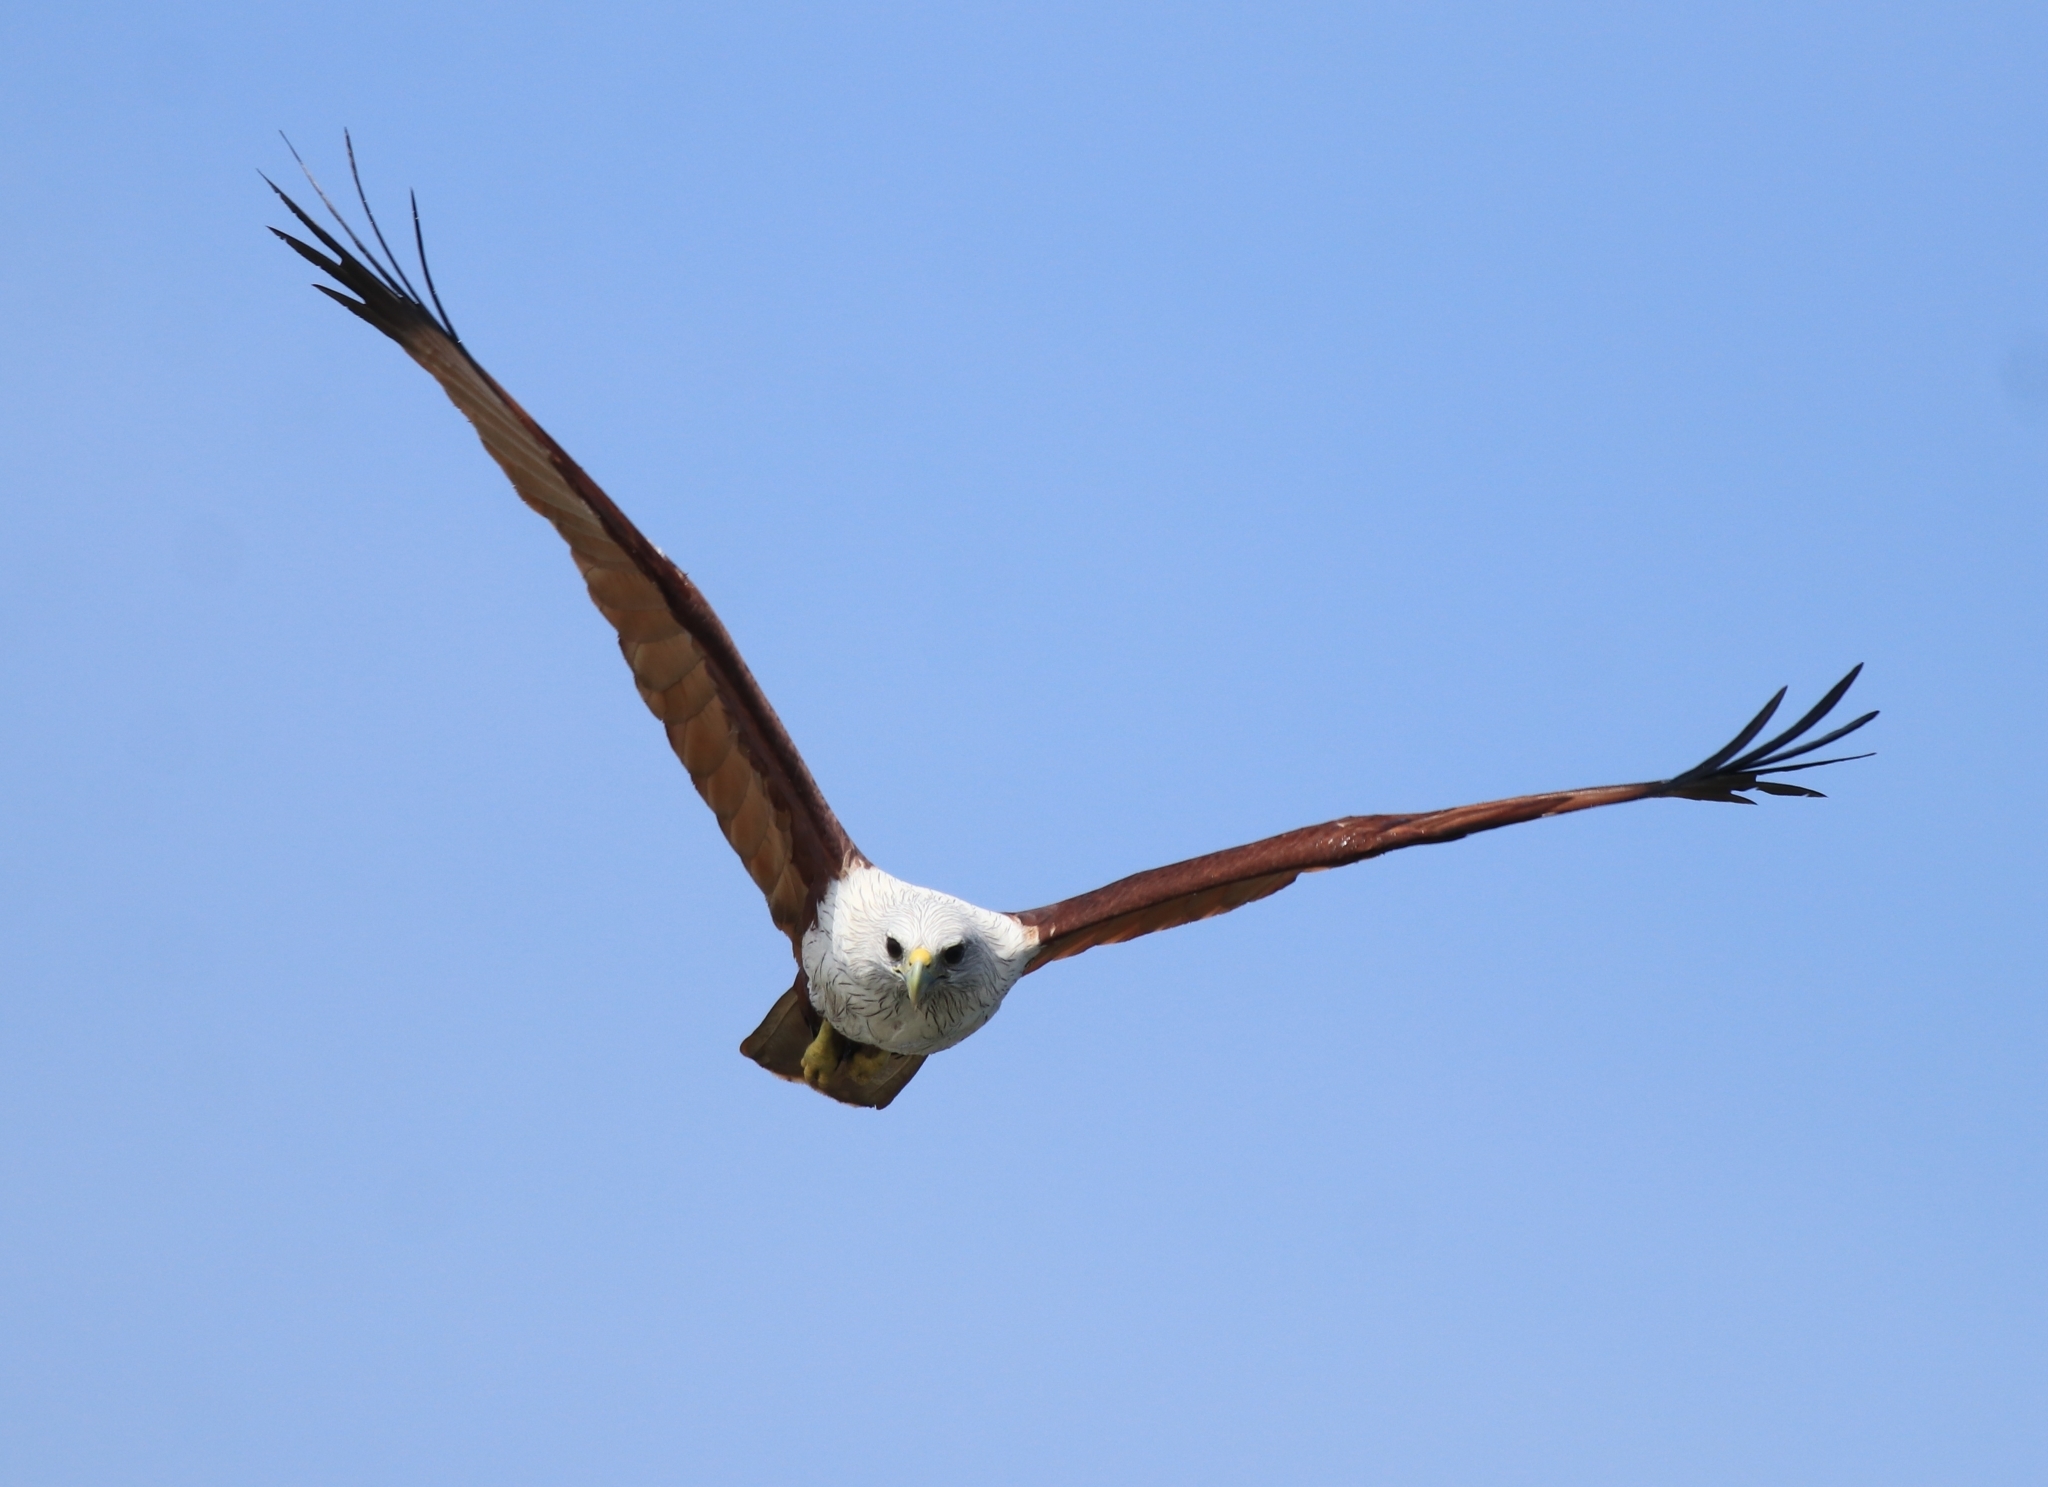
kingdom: Animalia
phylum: Chordata
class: Aves
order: Accipitriformes
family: Accipitridae
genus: Haliastur
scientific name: Haliastur indus
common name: Brahminy kite
